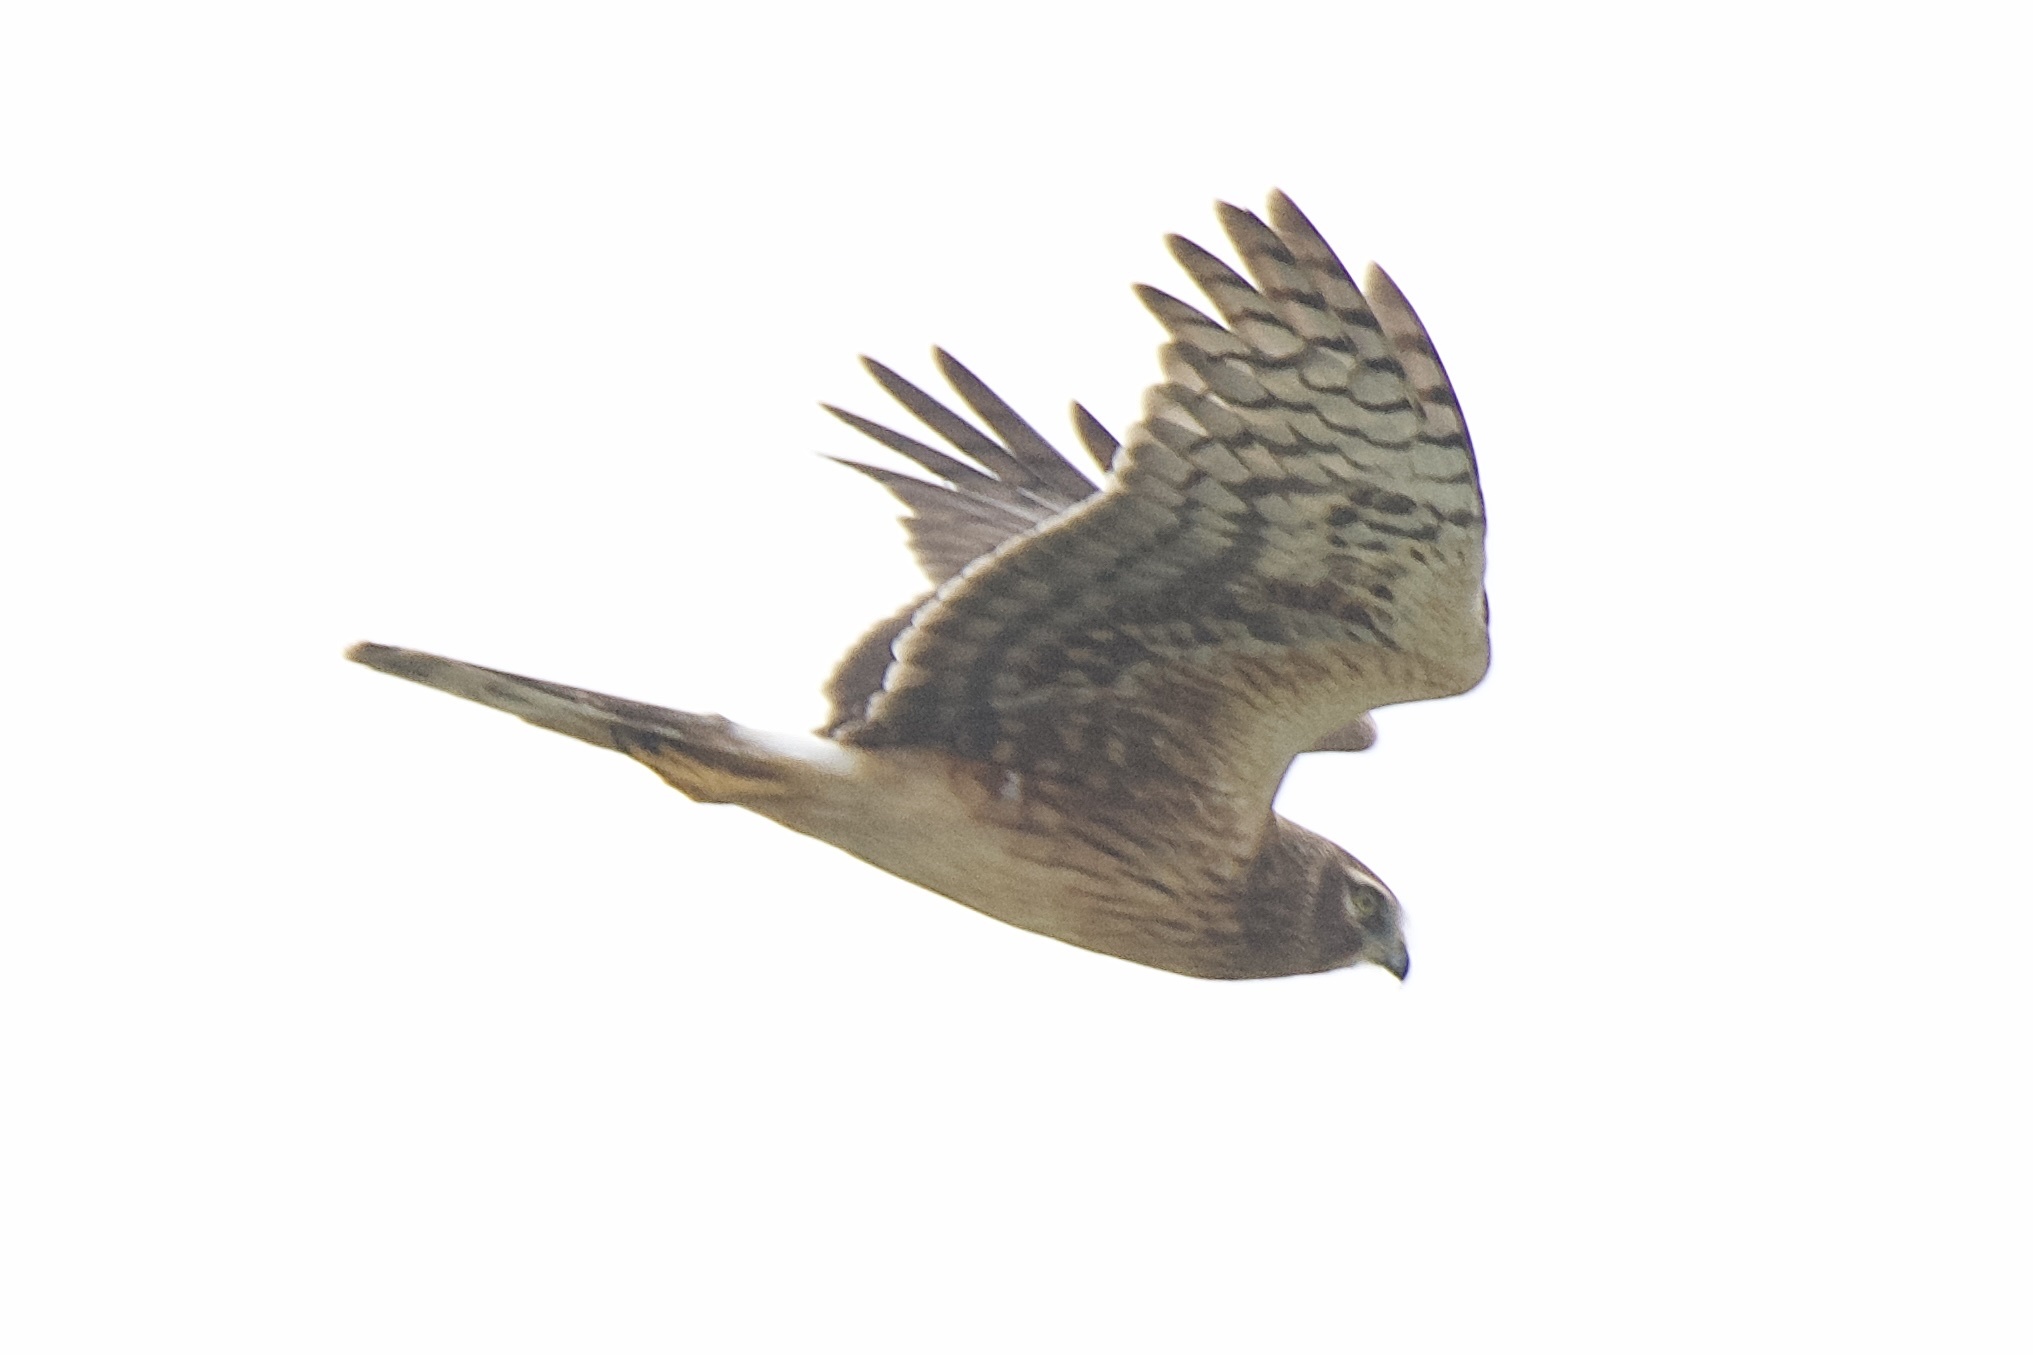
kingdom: Animalia
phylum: Chordata
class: Aves
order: Accipitriformes
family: Accipitridae
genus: Circus
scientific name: Circus cyaneus
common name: Hen harrier
